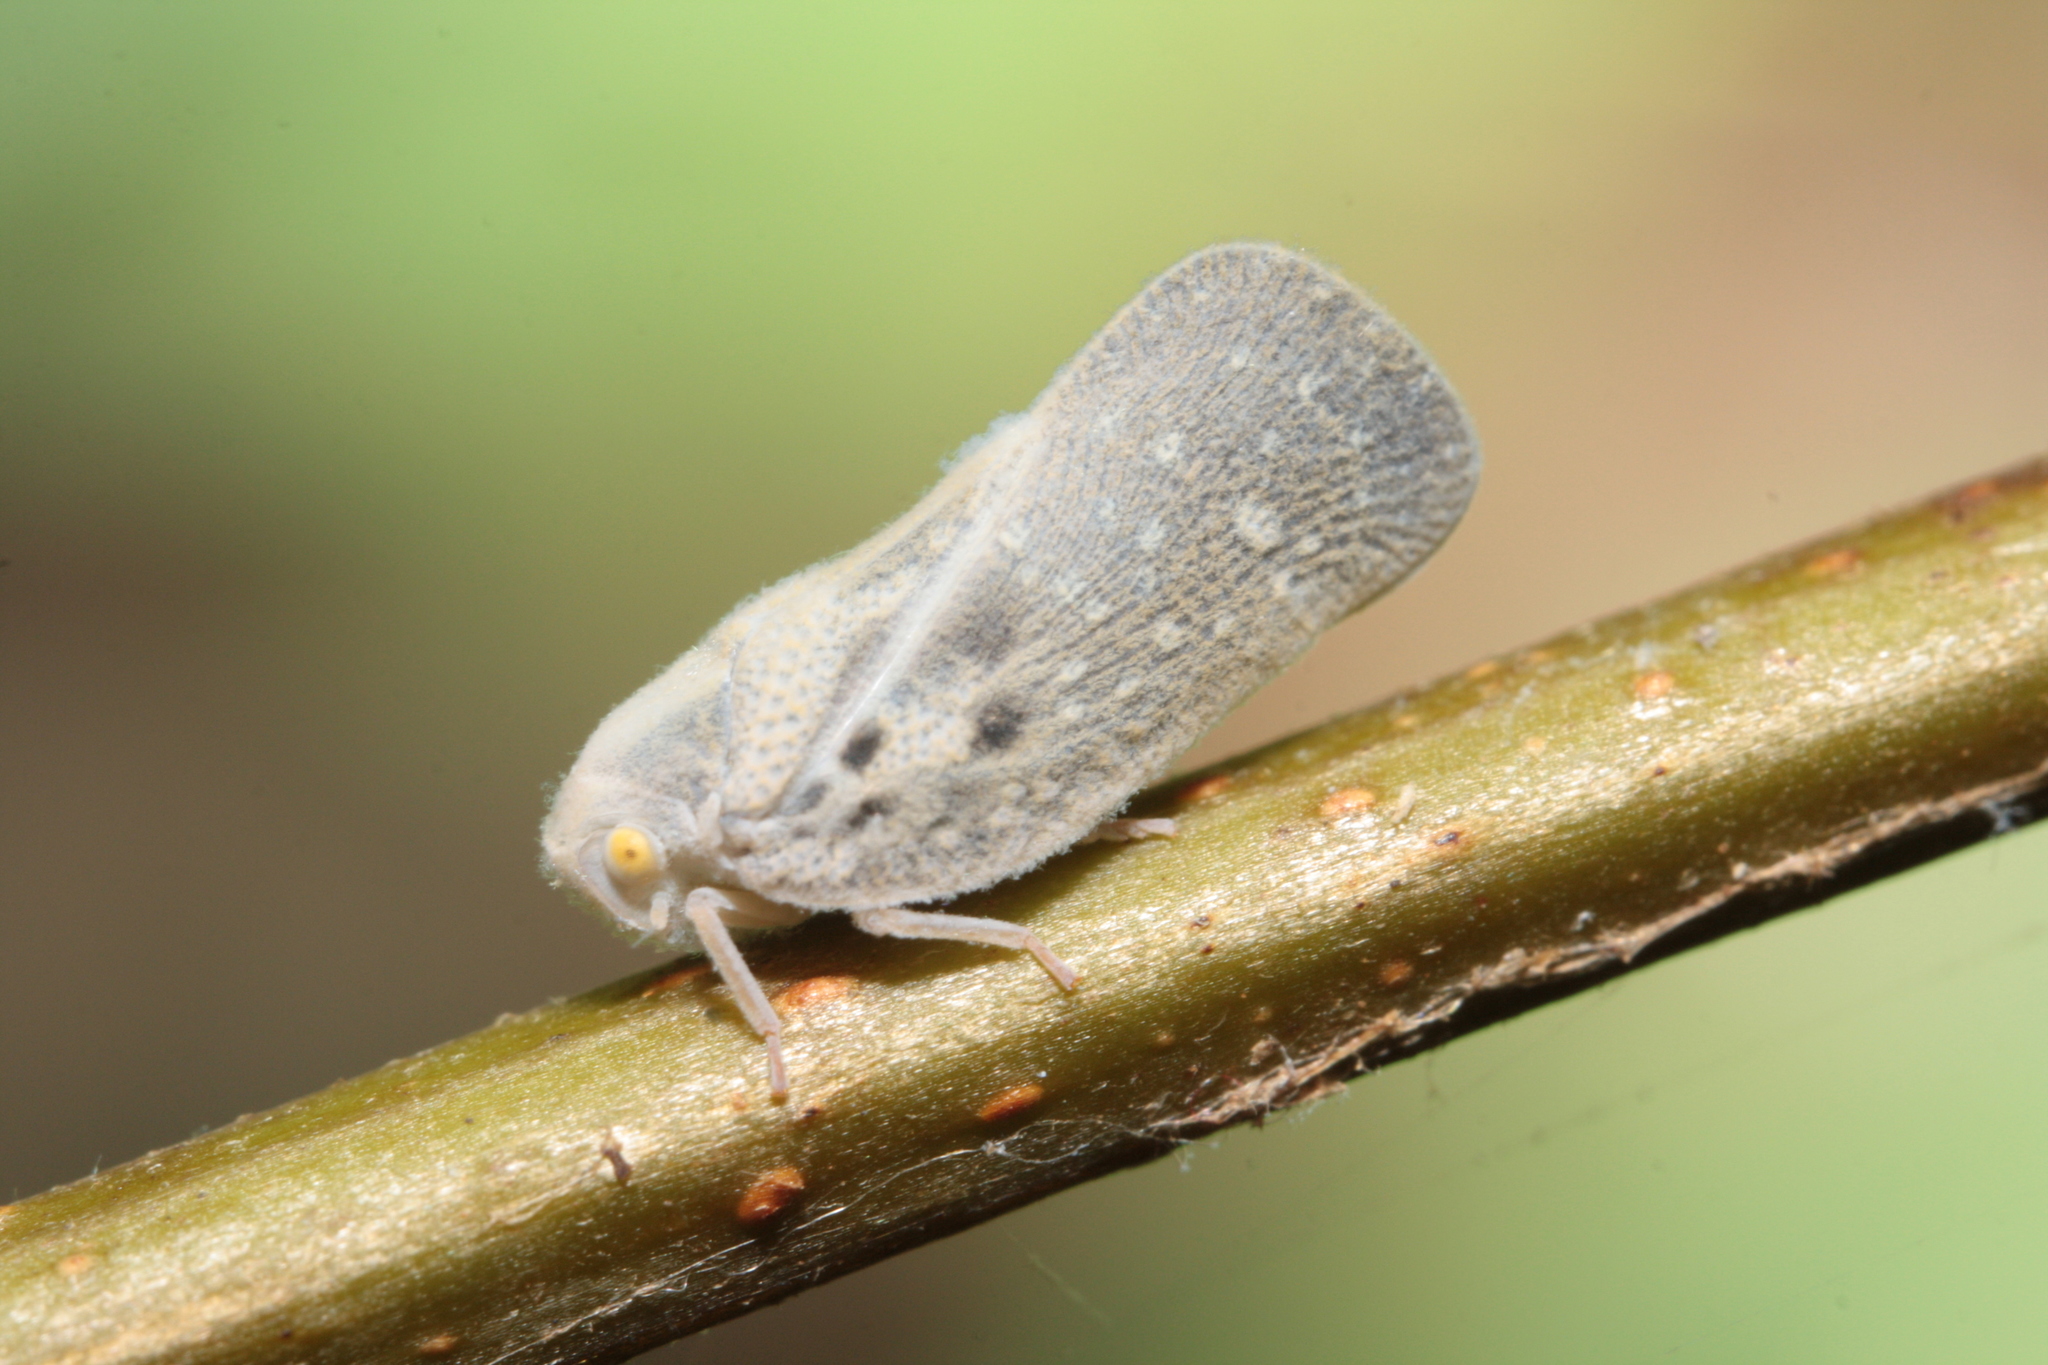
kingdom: Animalia
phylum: Arthropoda
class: Insecta
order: Hemiptera
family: Flatidae
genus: Metcalfa
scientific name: Metcalfa pruinosa
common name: Citrus flatid planthopper
